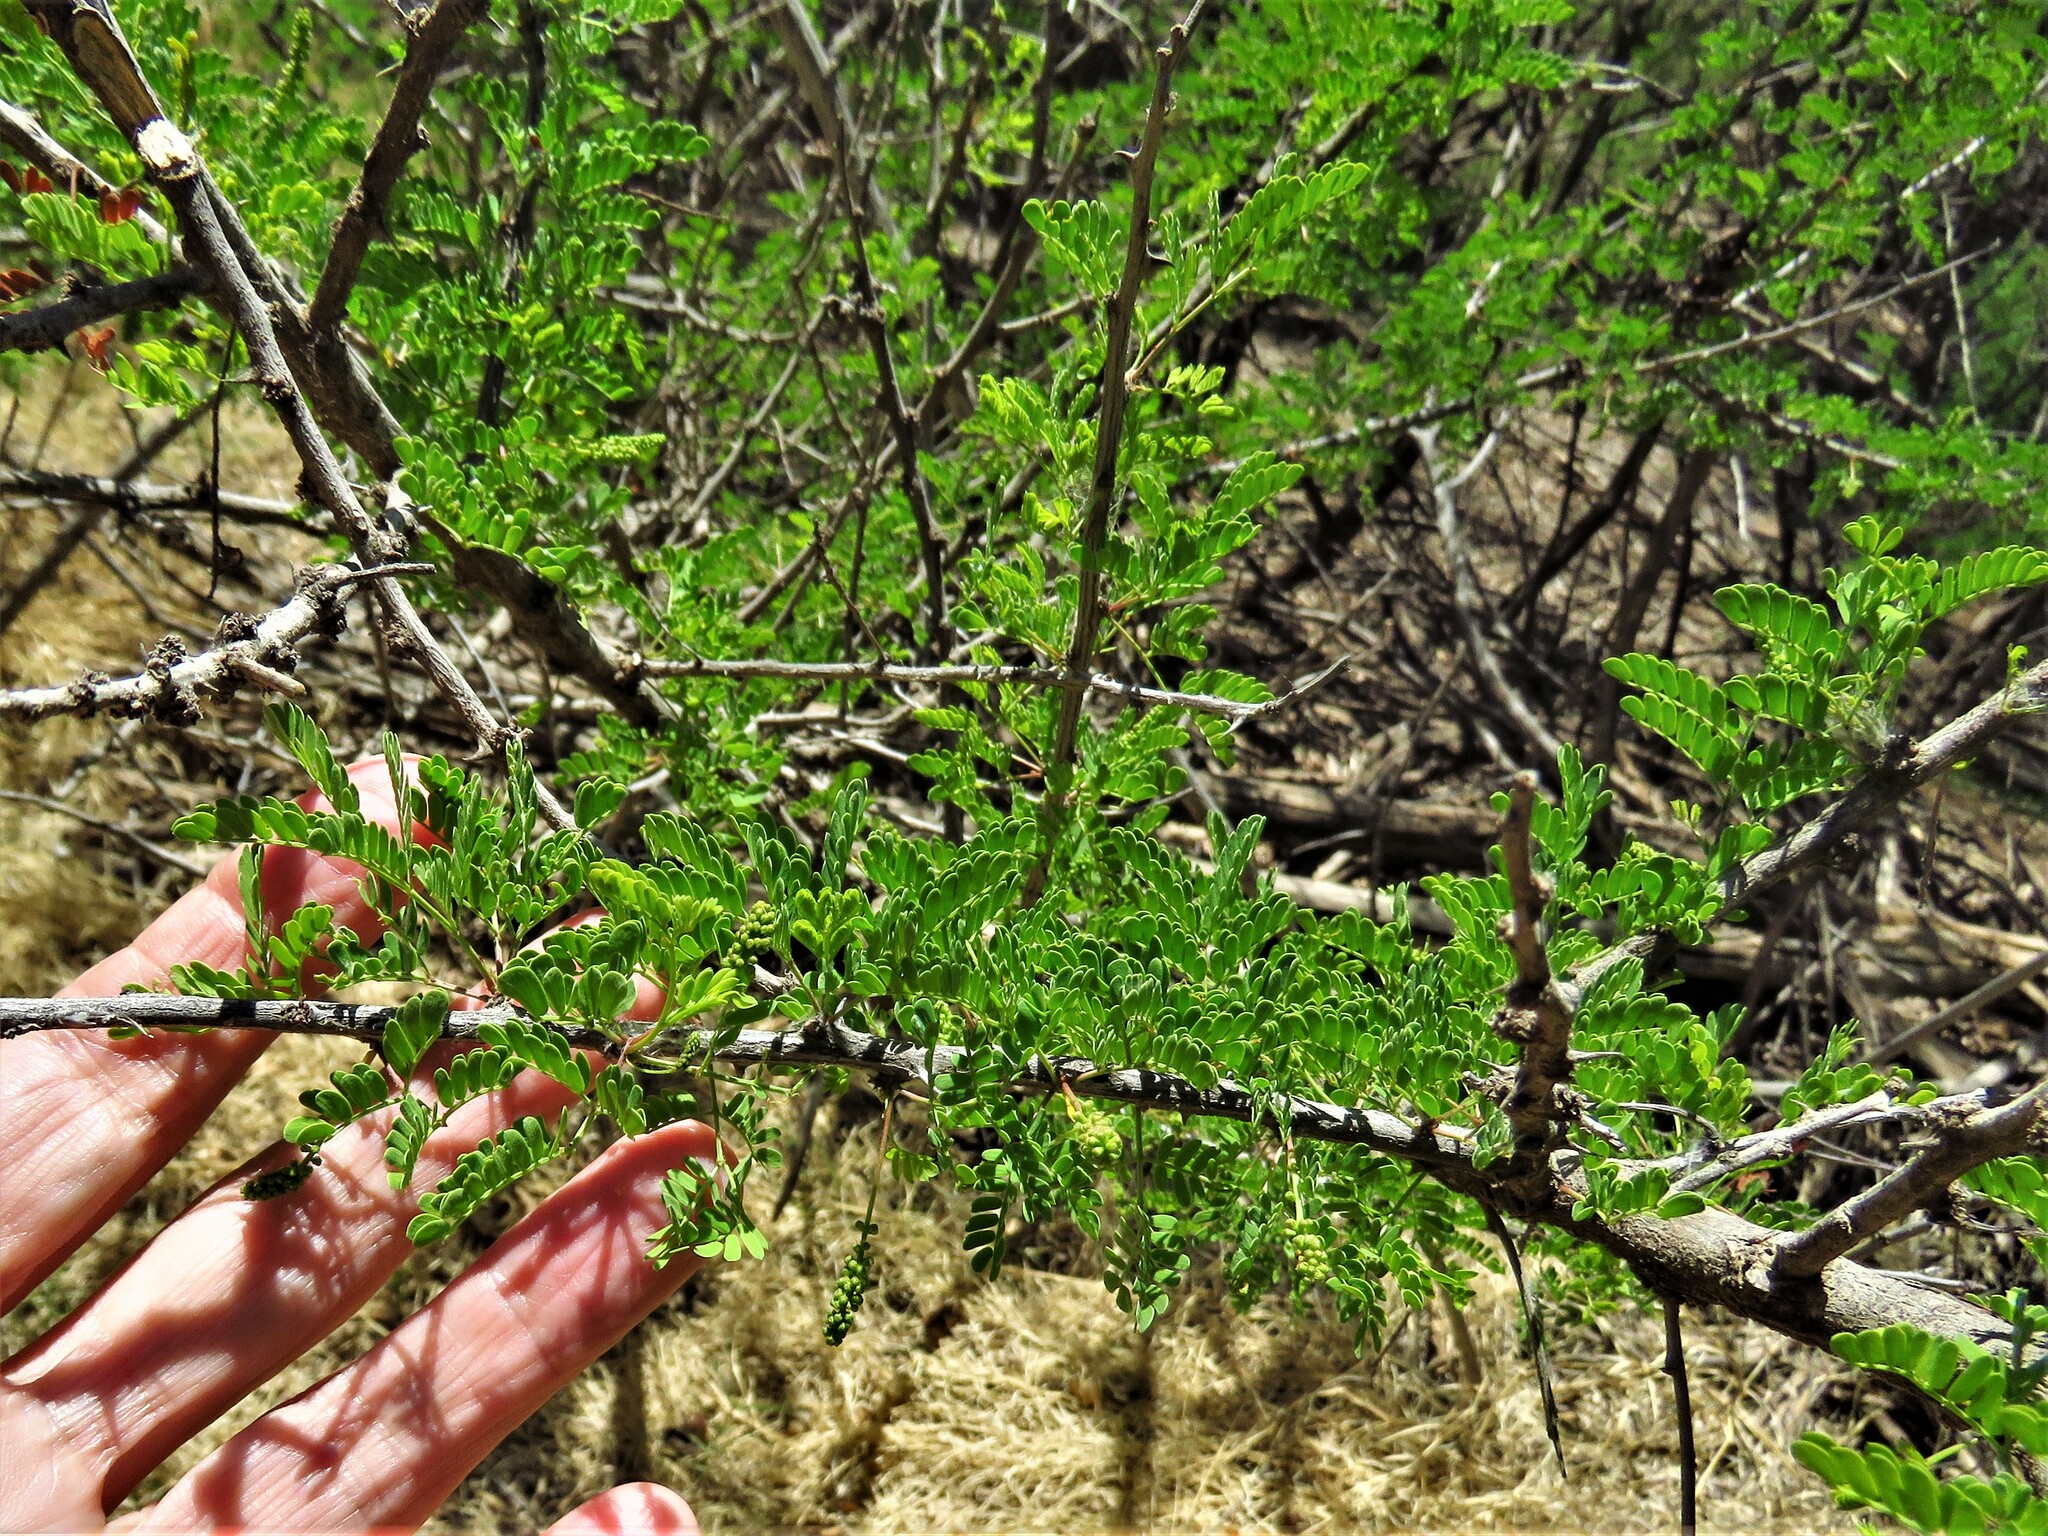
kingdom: Plantae
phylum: Tracheophyta
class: Magnoliopsida
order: Fabales
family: Fabaceae
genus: Senegalia
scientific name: Senegalia greggii
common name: Texas-mimosa
